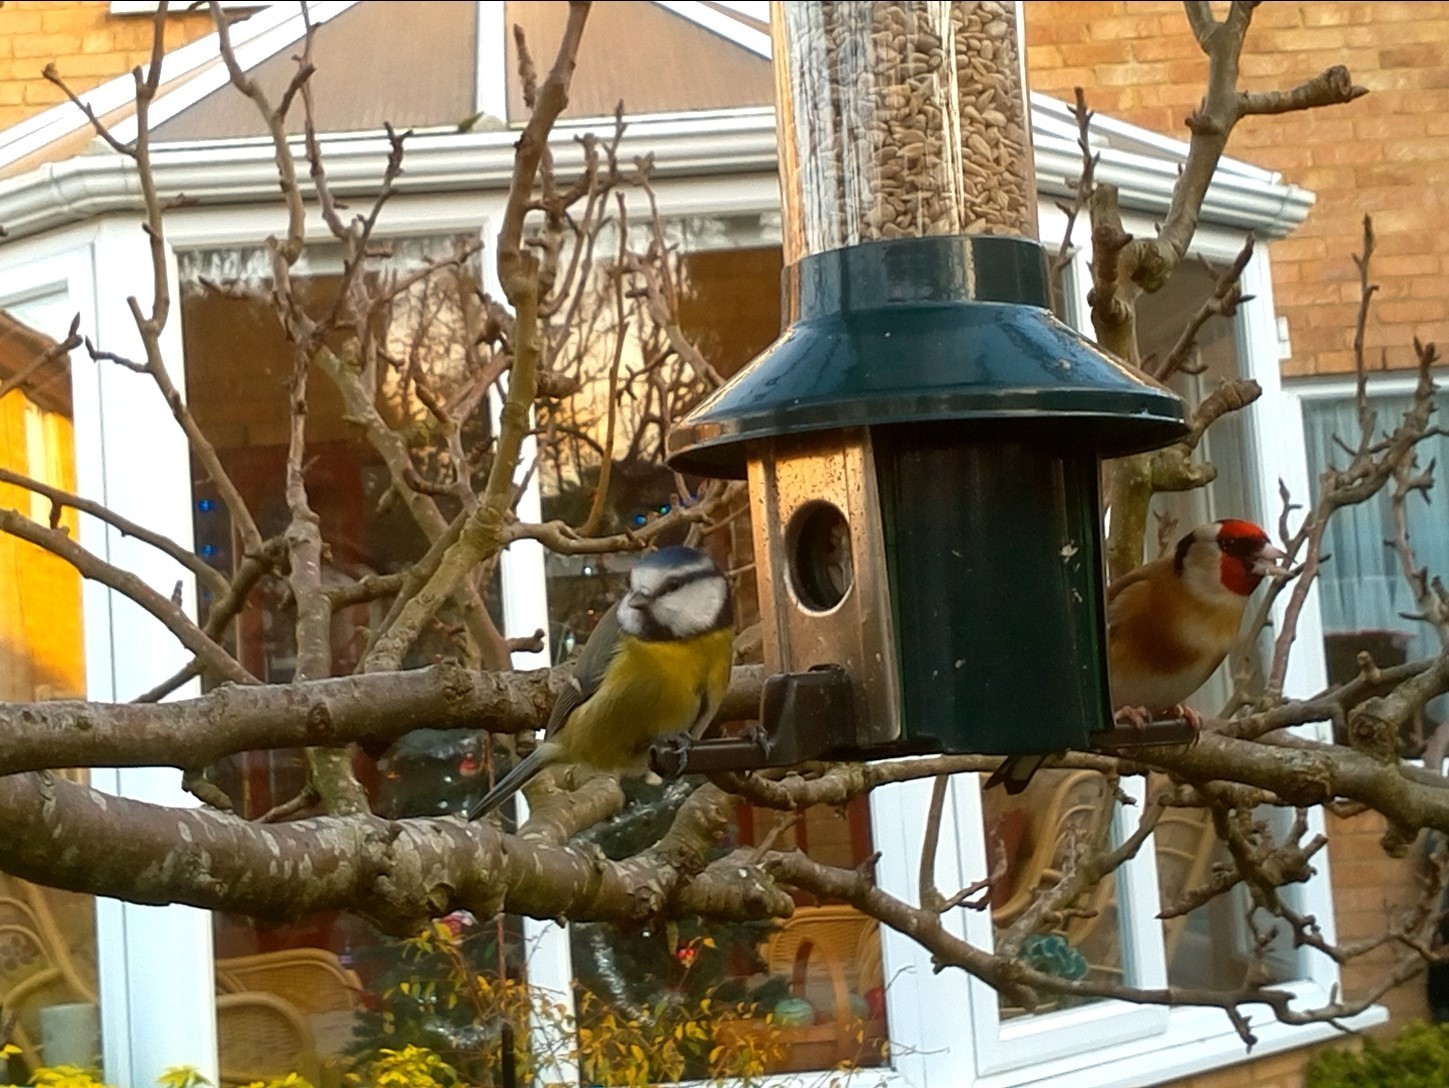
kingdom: Animalia
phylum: Chordata
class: Aves
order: Passeriformes
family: Paridae
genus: Cyanistes
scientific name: Cyanistes caeruleus
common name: Eurasian blue tit
